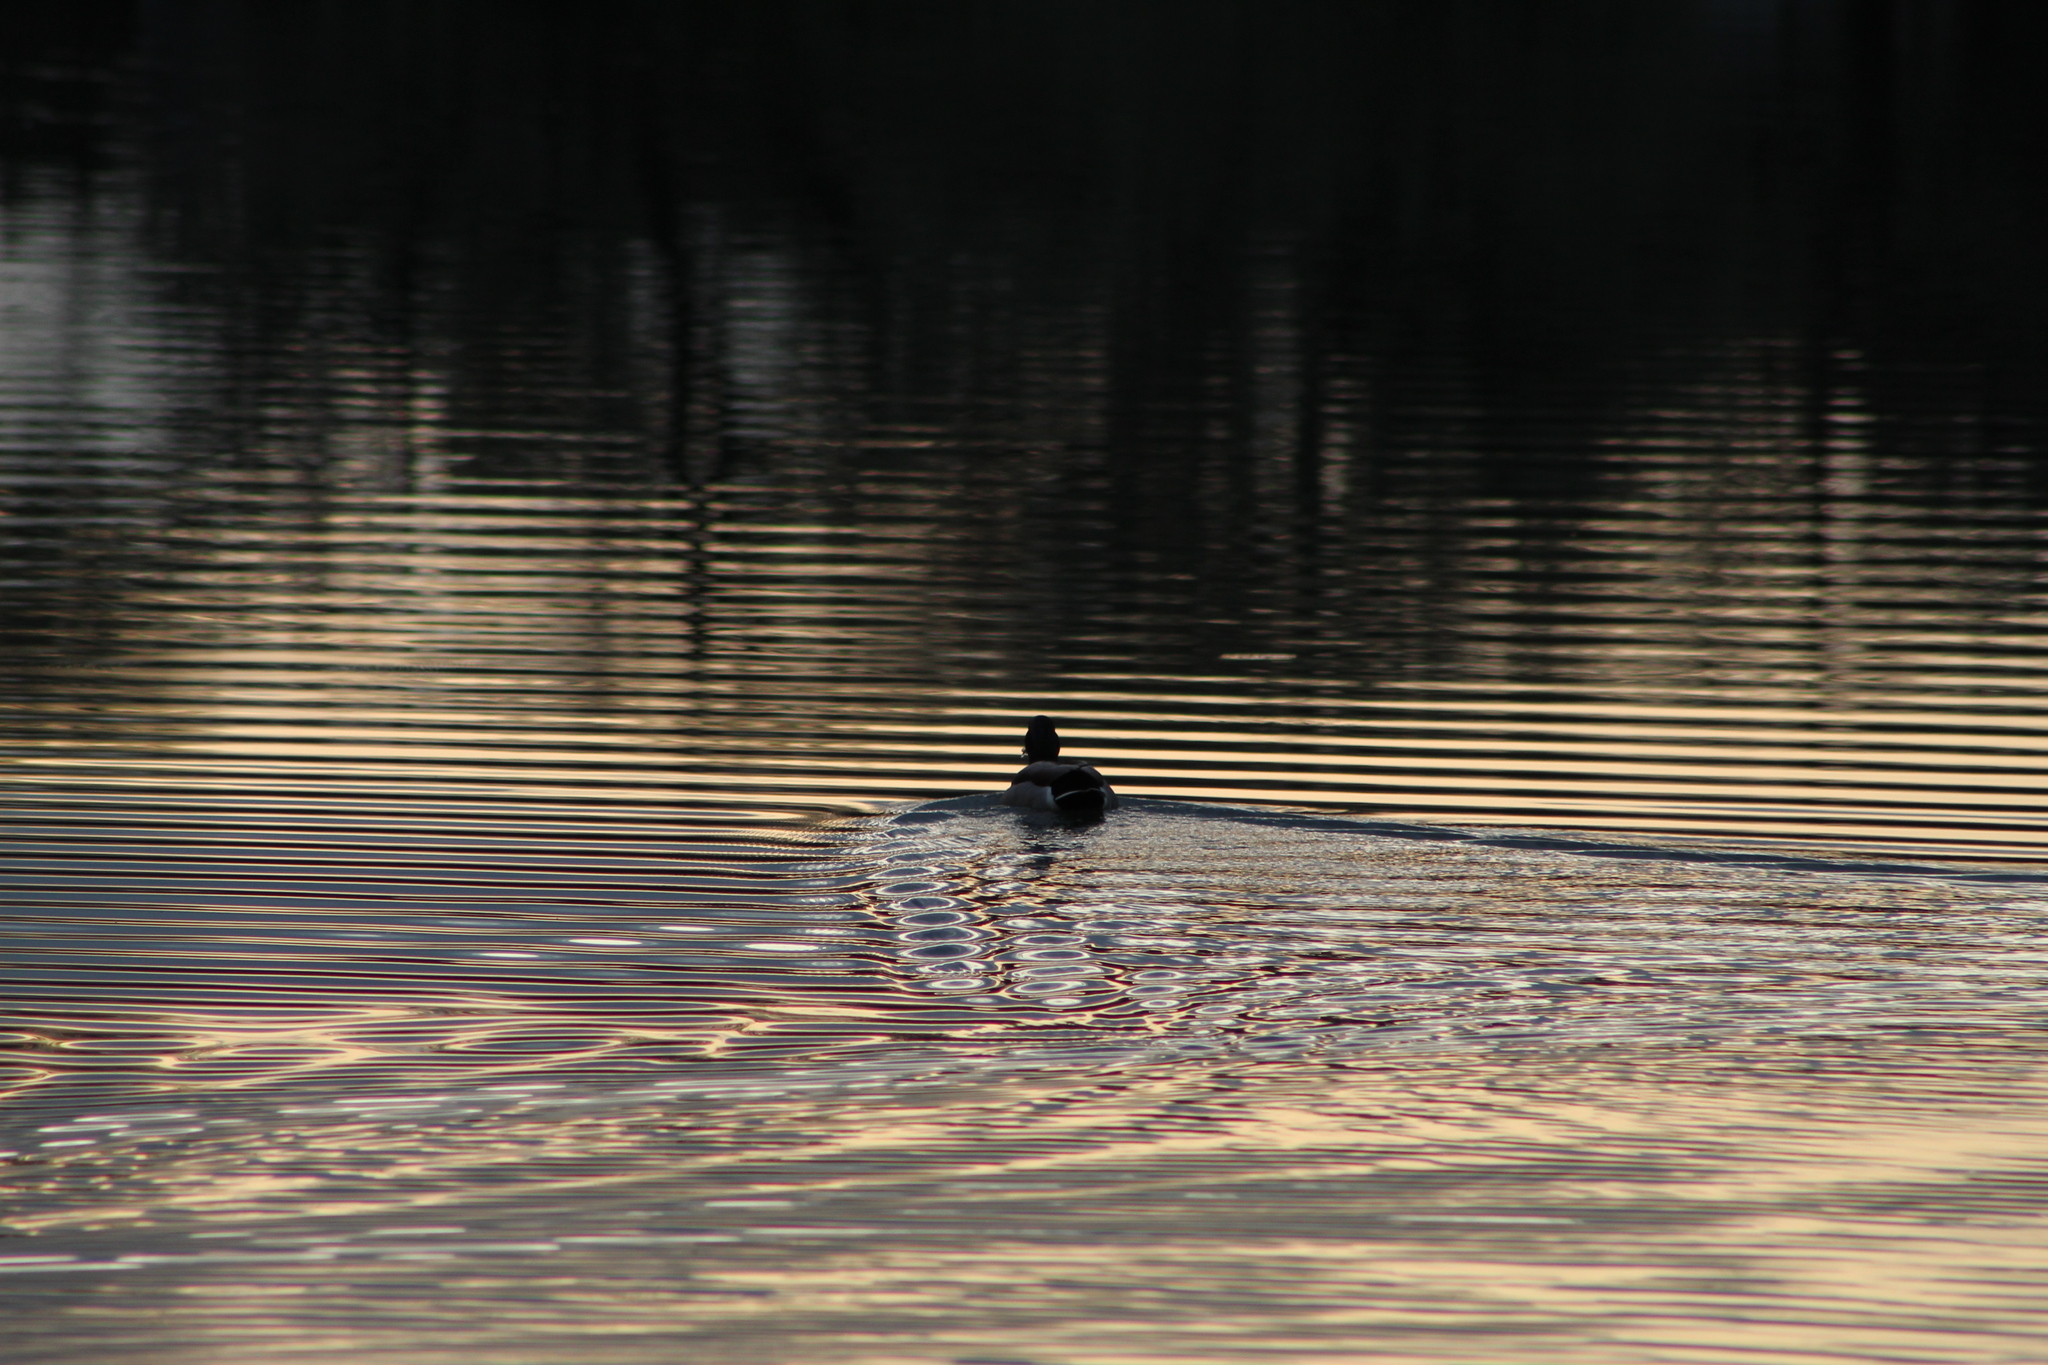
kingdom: Animalia
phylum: Chordata
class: Aves
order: Anseriformes
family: Anatidae
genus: Anas
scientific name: Anas platyrhynchos
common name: Mallard
